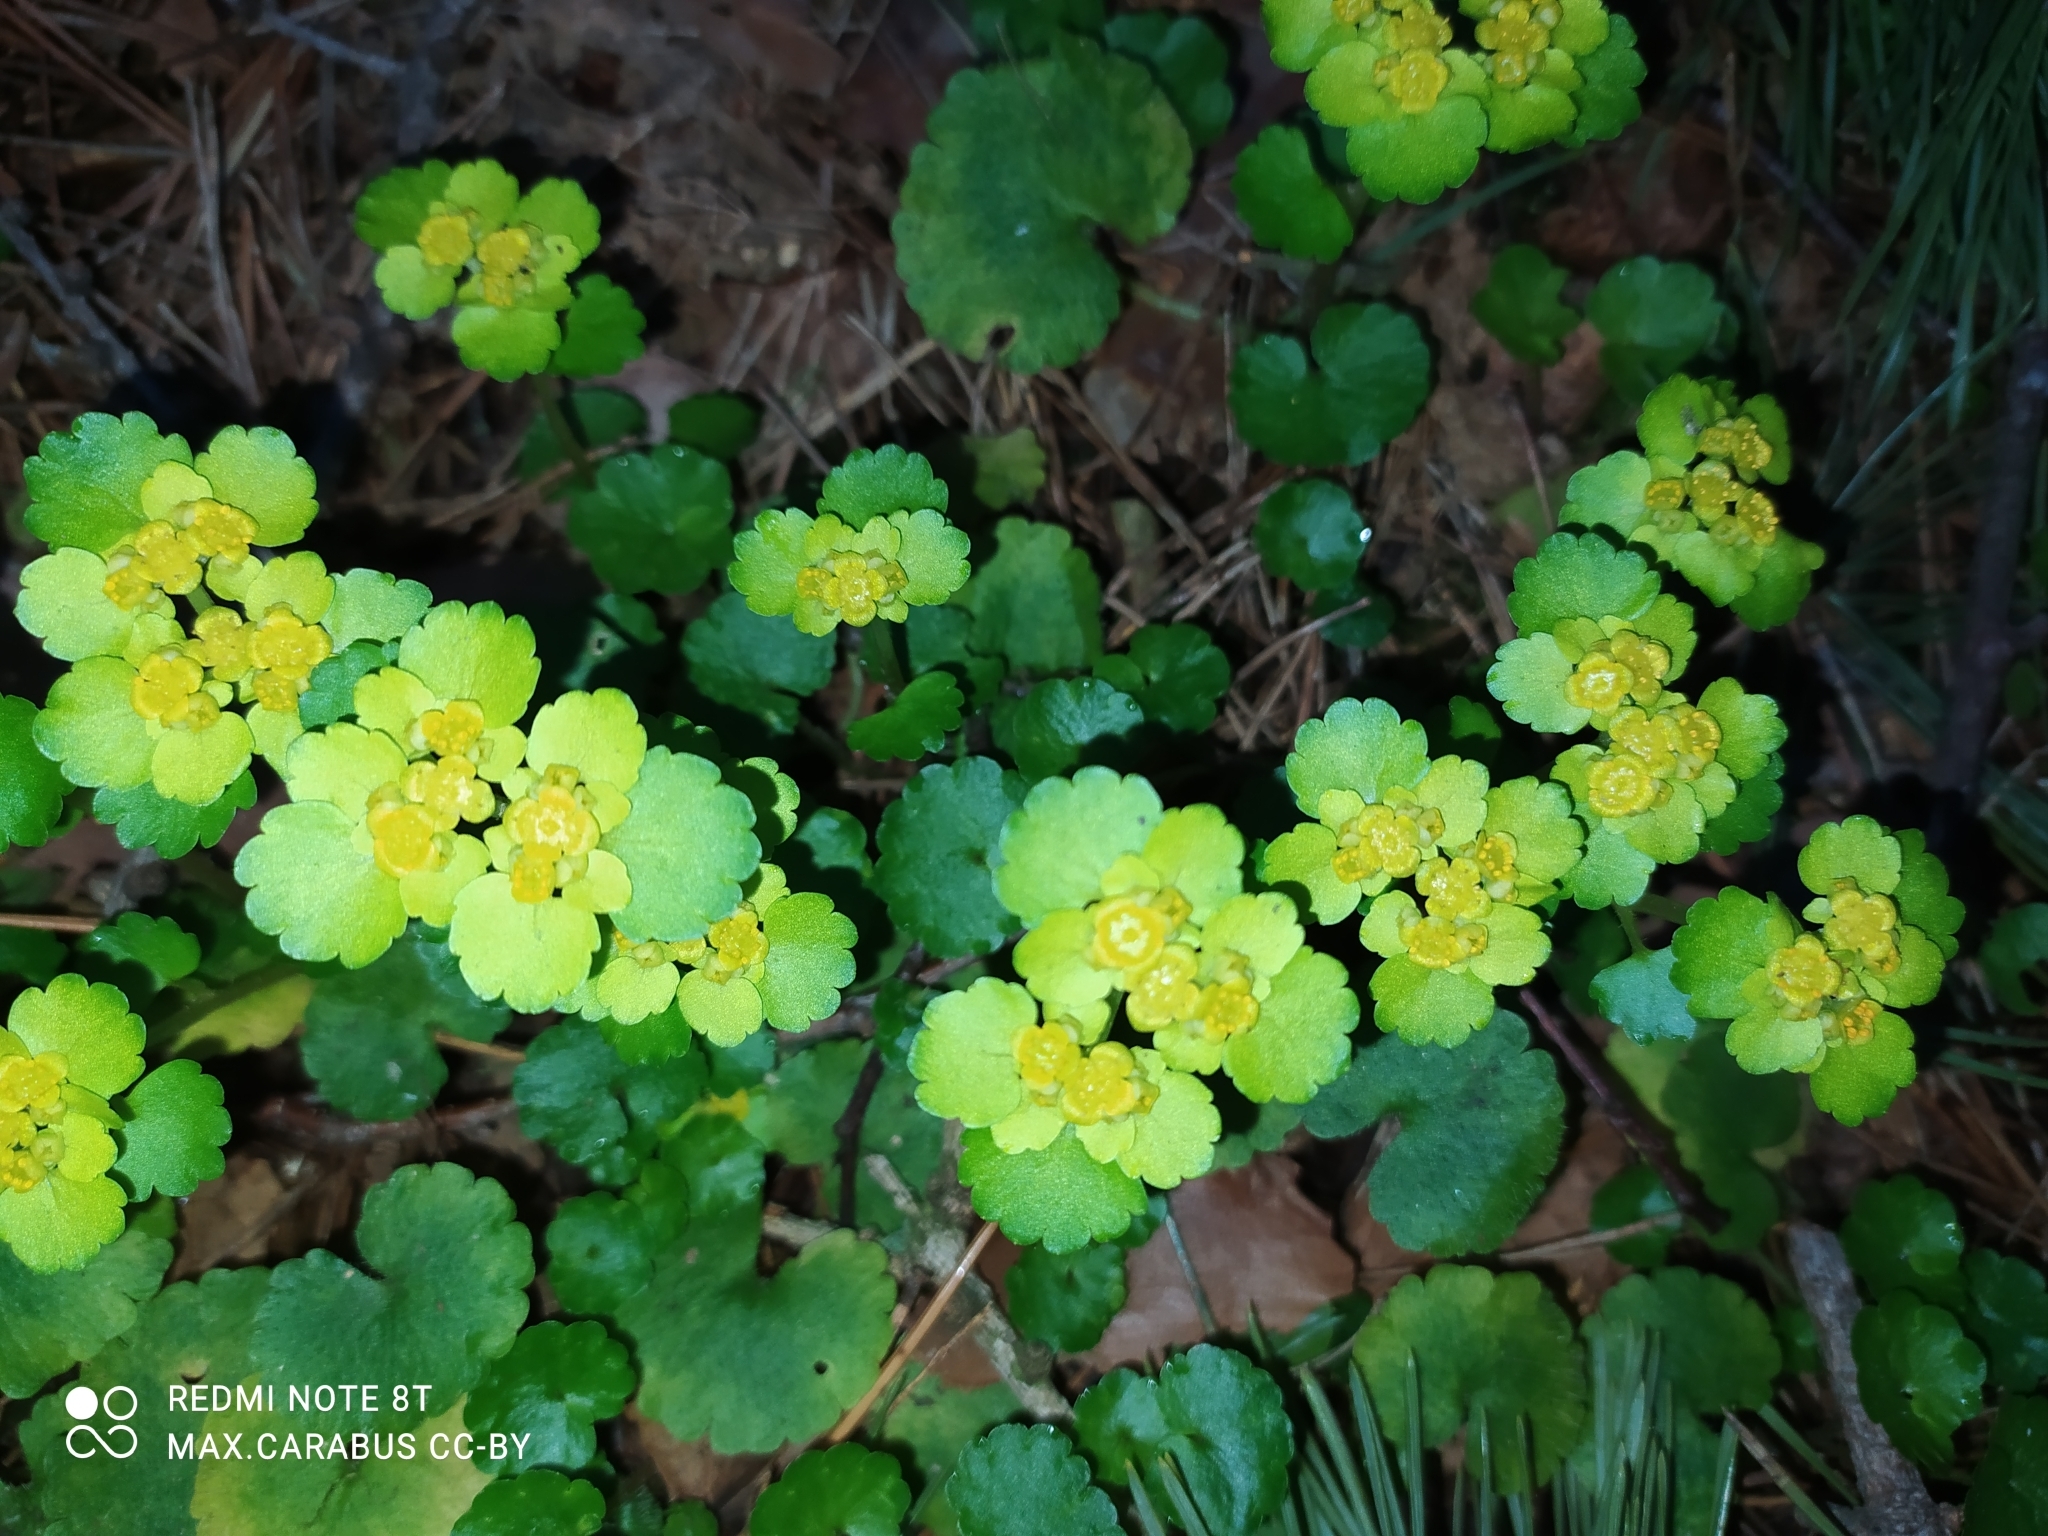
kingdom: Plantae
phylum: Tracheophyta
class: Magnoliopsida
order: Saxifragales
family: Saxifragaceae
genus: Chrysosplenium
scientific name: Chrysosplenium alternifolium
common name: Alternate-leaved golden-saxifrage
